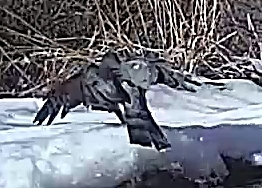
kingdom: Animalia
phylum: Chordata
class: Aves
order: Accipitriformes
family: Accipitridae
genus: Accipiter
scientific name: Accipiter cooperii
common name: Cooper's hawk
